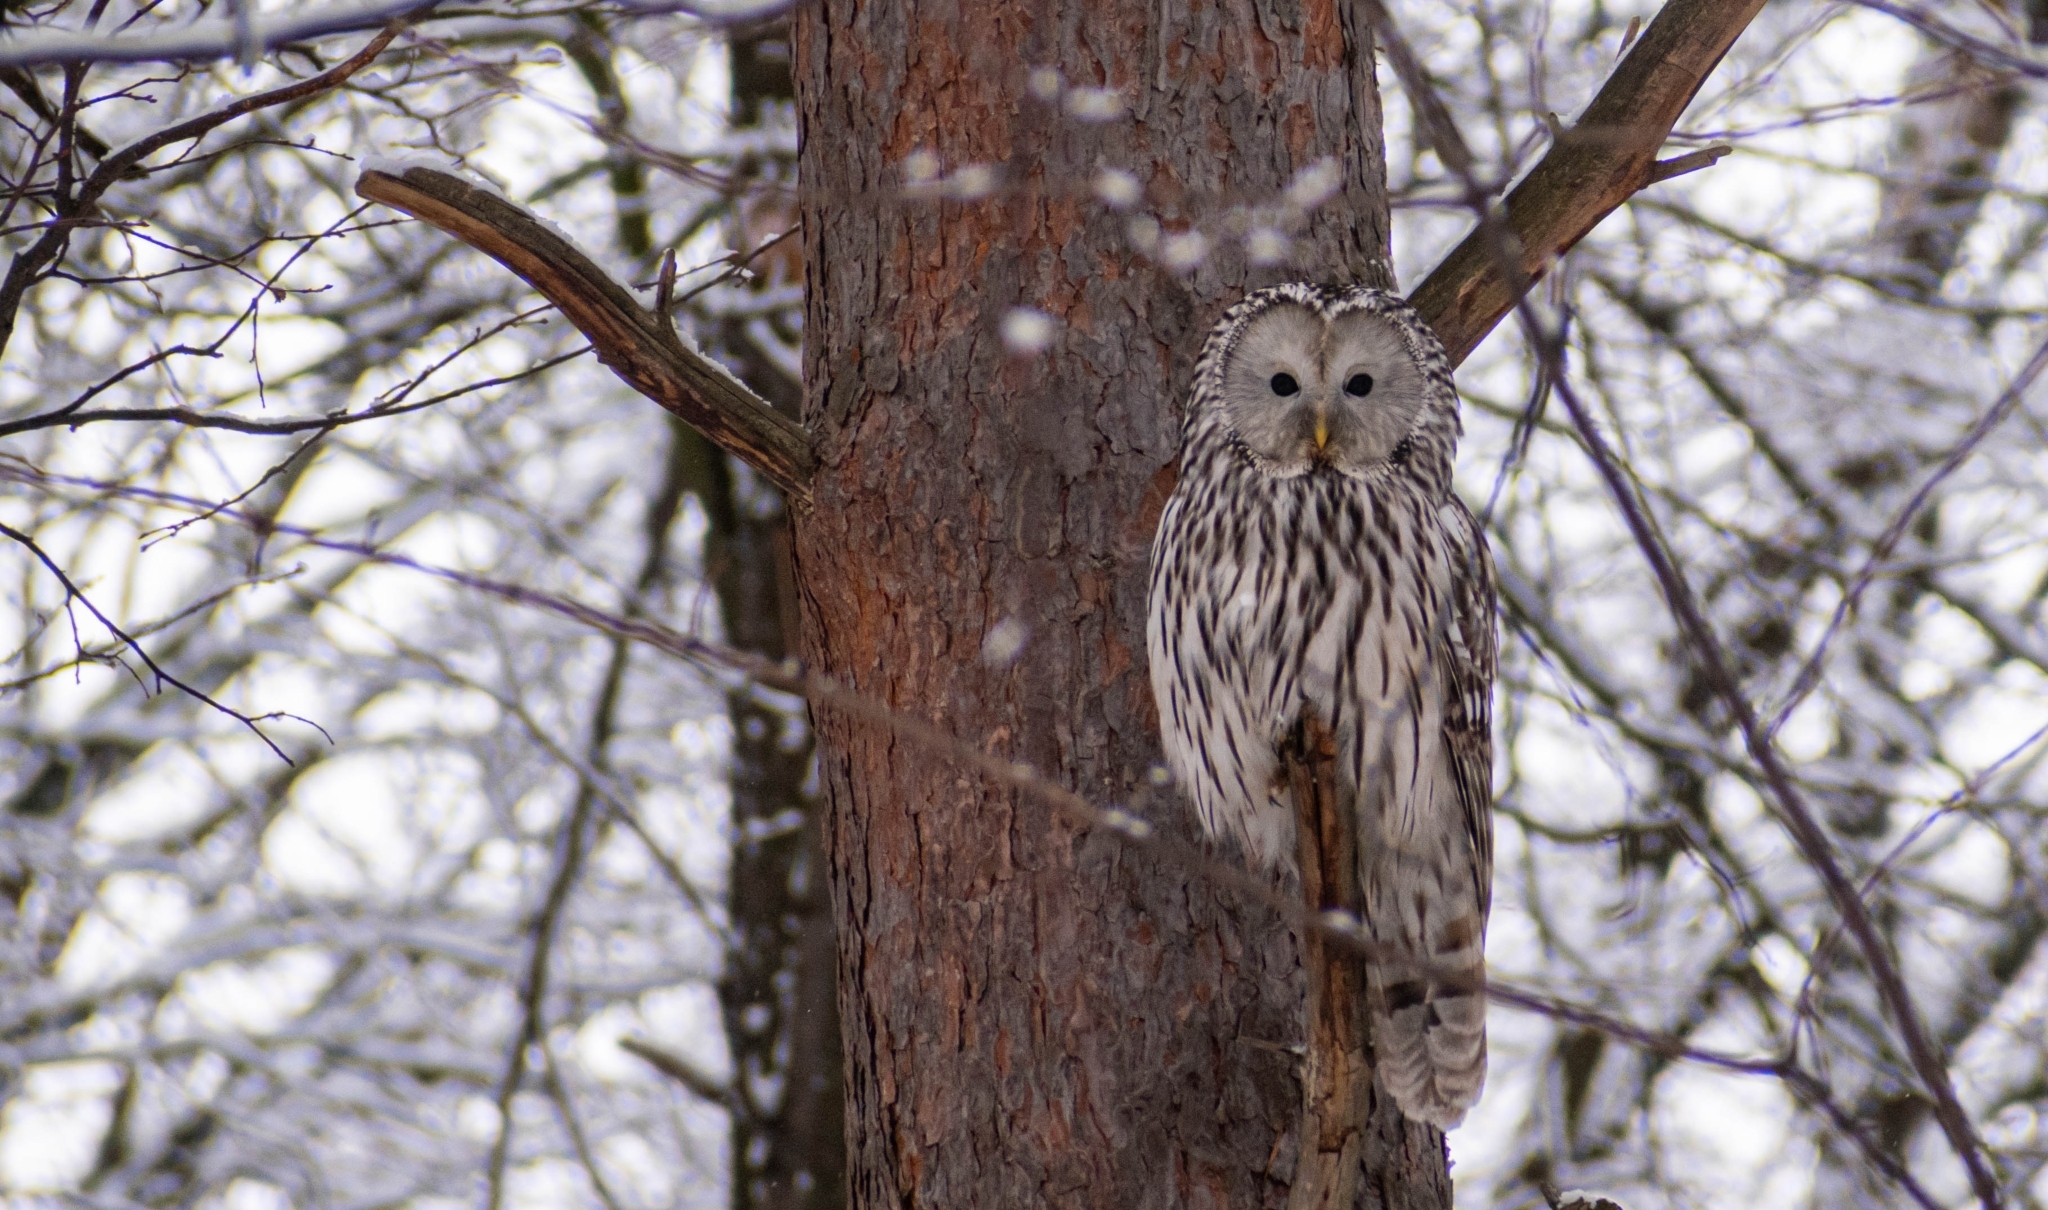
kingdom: Animalia
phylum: Chordata
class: Aves
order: Strigiformes
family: Strigidae
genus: Strix
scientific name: Strix uralensis
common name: Ural owl
